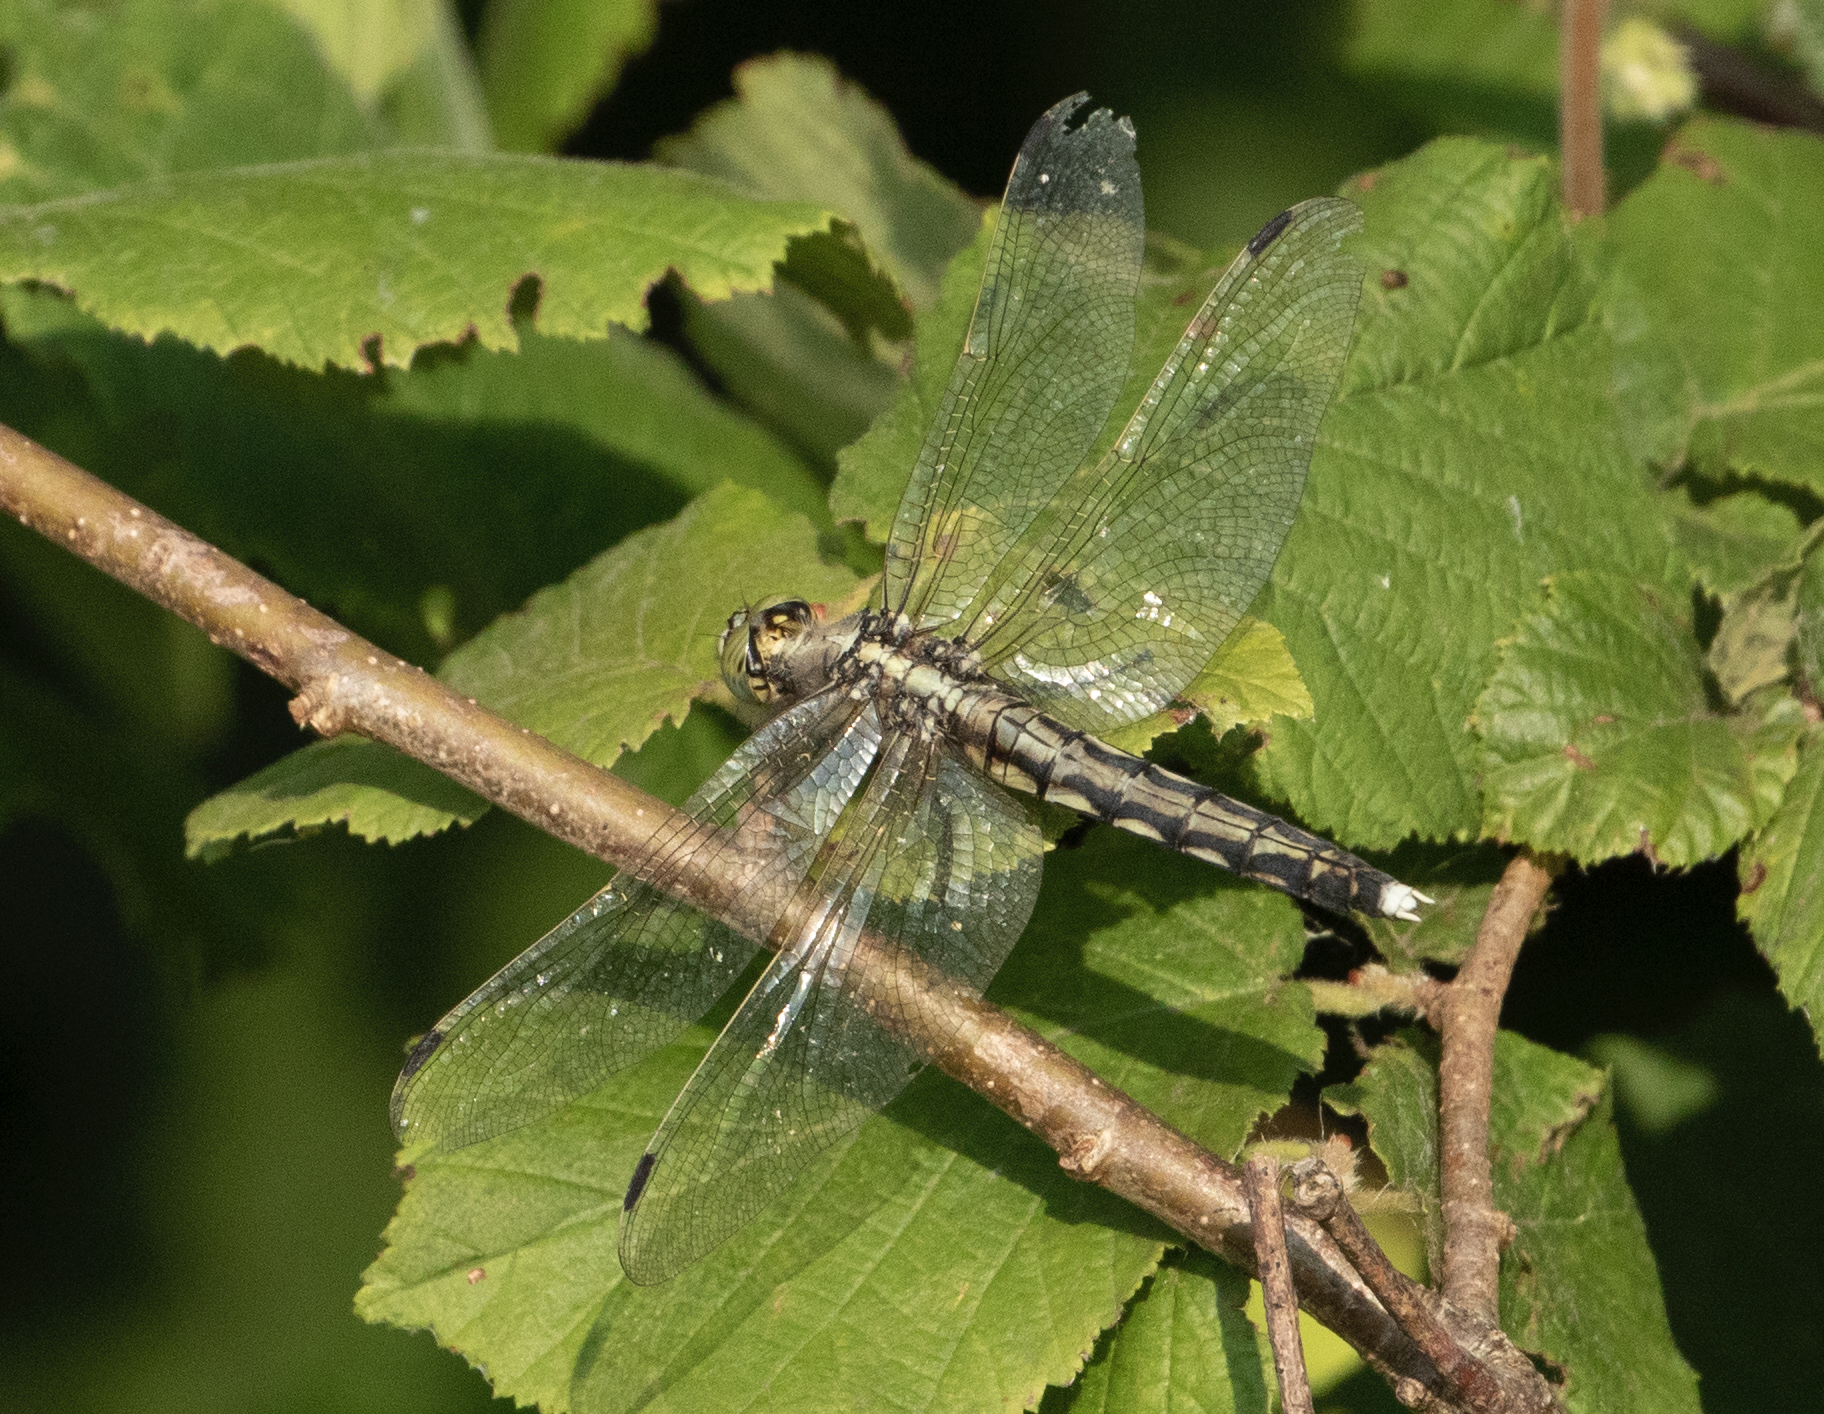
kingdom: Animalia
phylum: Arthropoda
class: Insecta
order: Odonata
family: Libellulidae
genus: Orthetrum
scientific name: Orthetrum albistylum
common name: White-tailed skimmer
